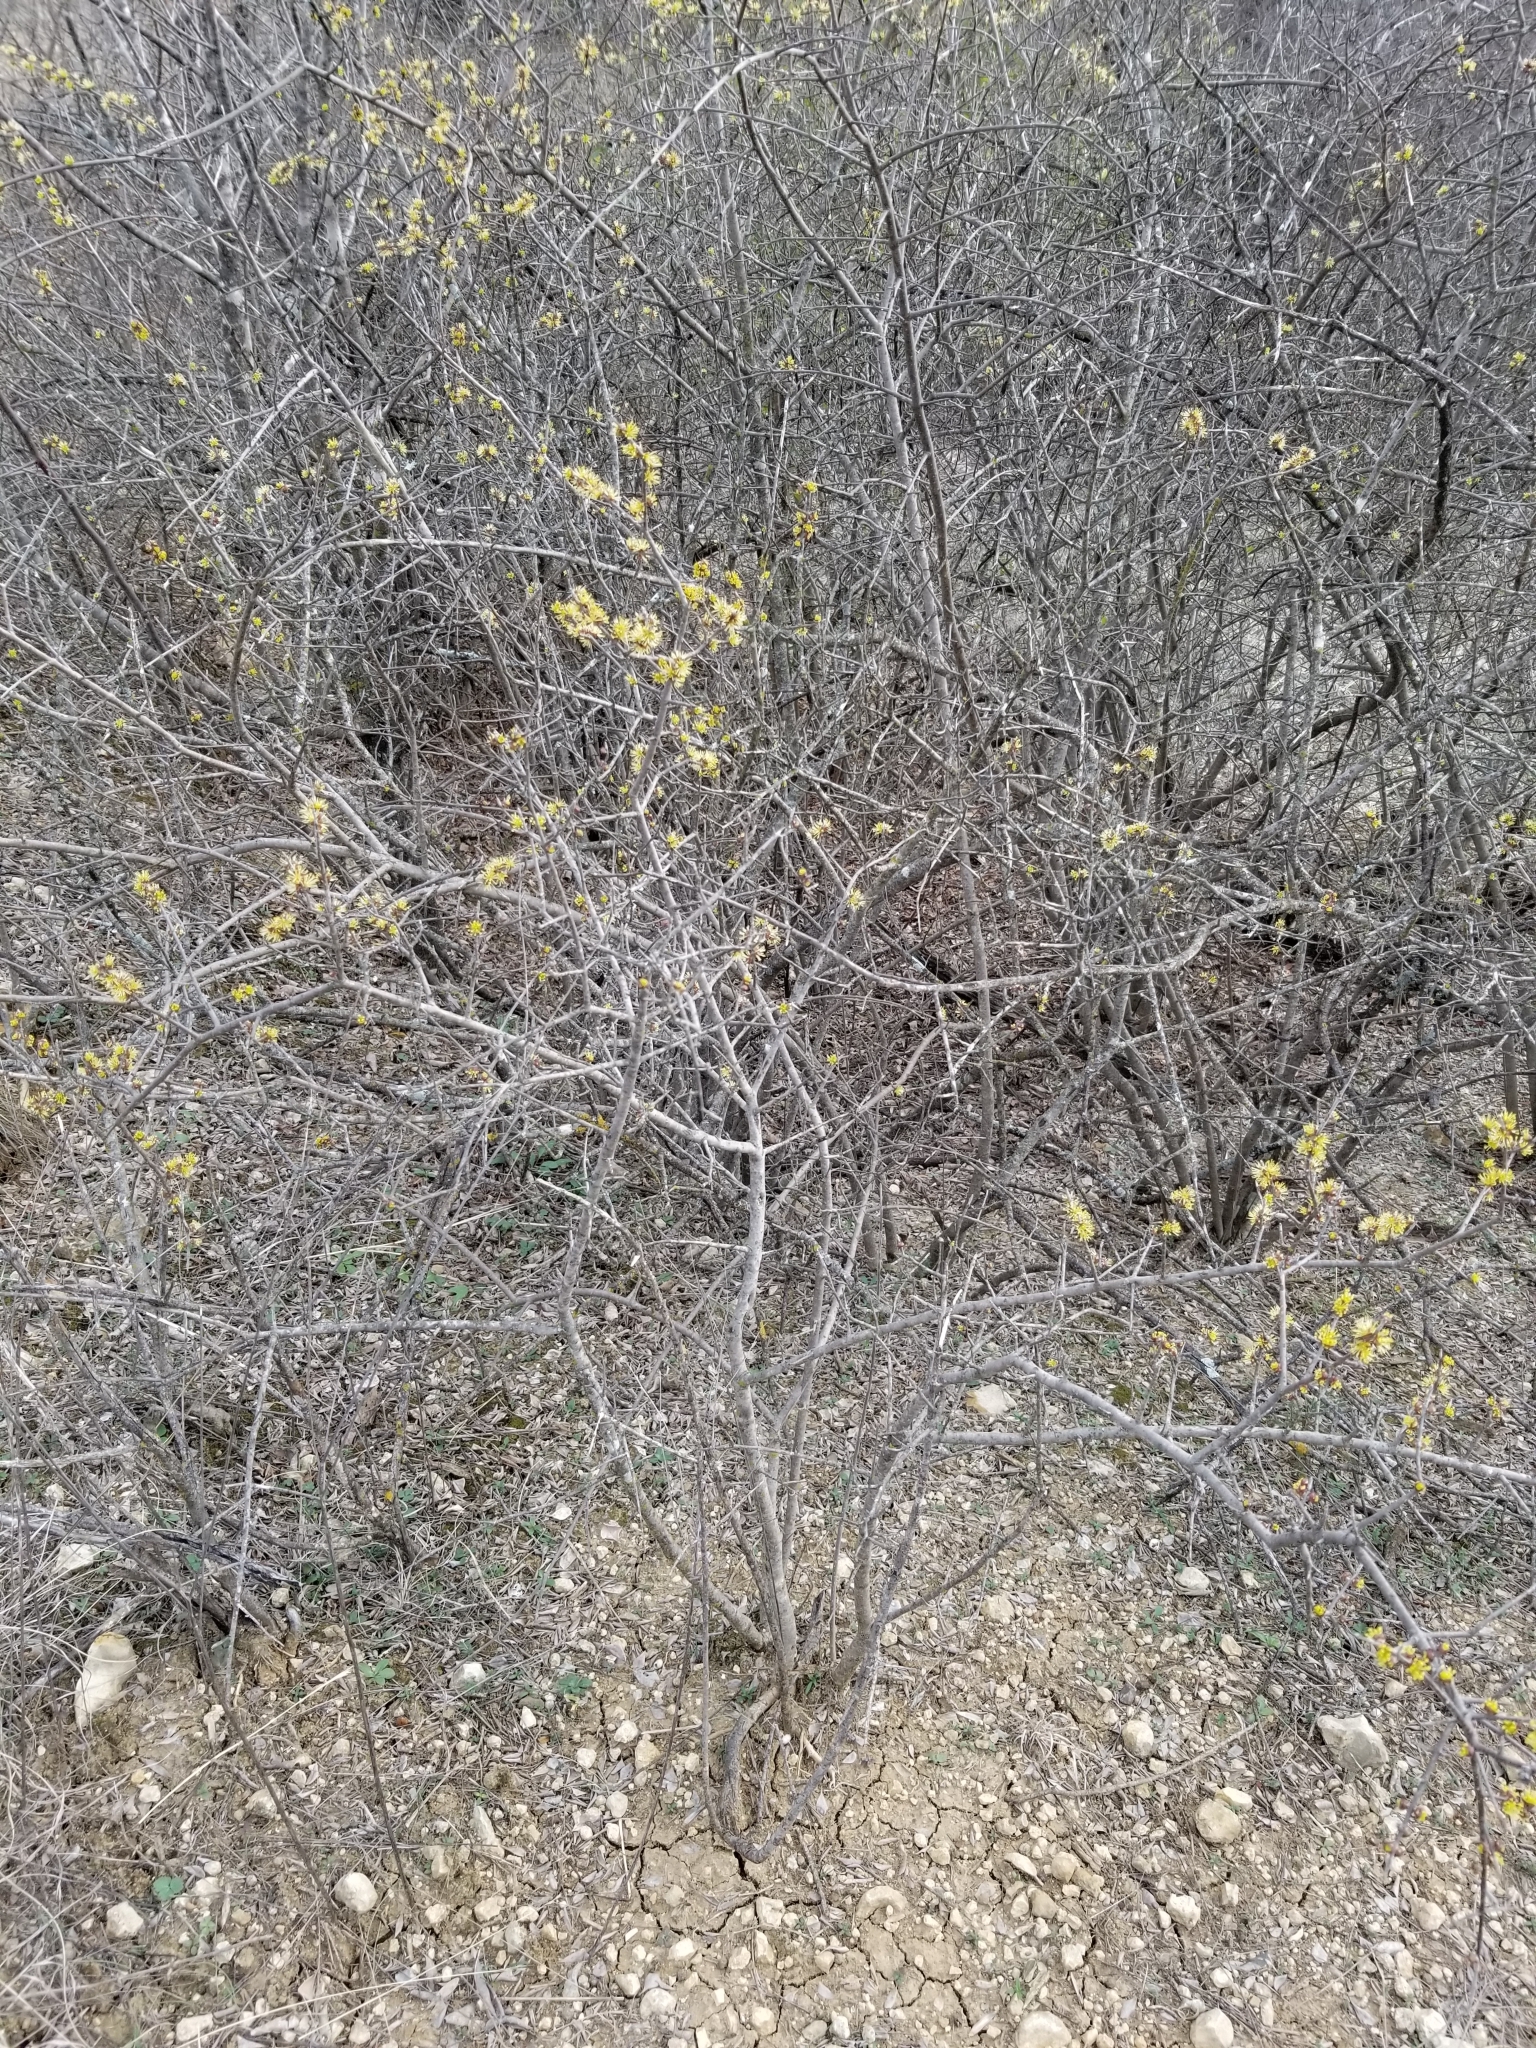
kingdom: Plantae
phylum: Tracheophyta
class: Magnoliopsida
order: Lamiales
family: Oleaceae
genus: Forestiera
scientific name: Forestiera pubescens
